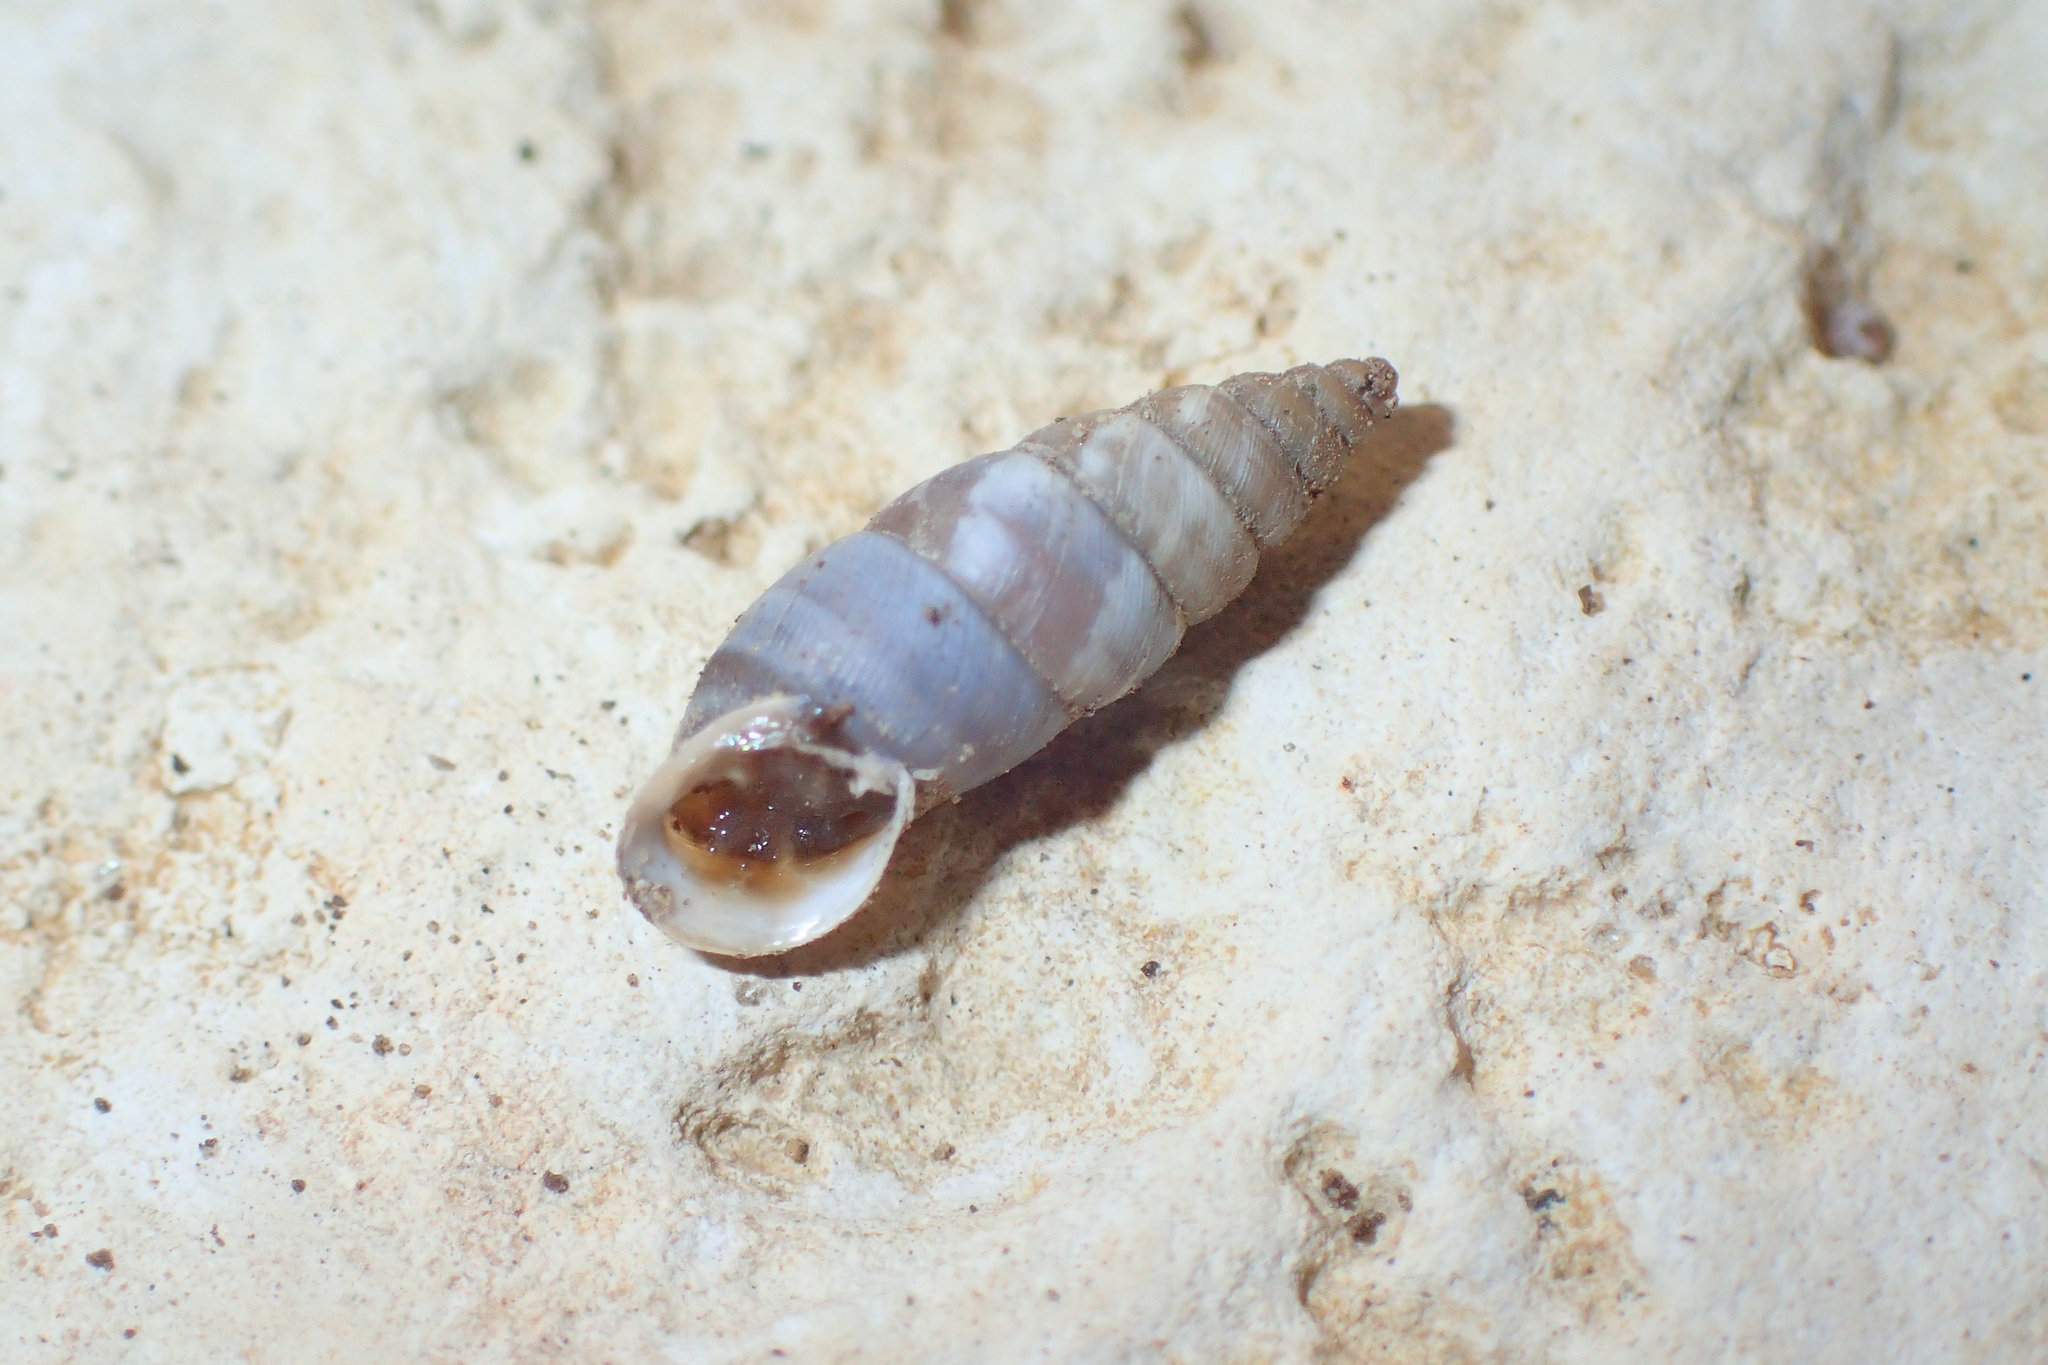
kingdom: Animalia
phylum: Mollusca
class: Gastropoda
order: Stylommatophora
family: Chondrinidae
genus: Solatopupa
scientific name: Solatopupa similis
